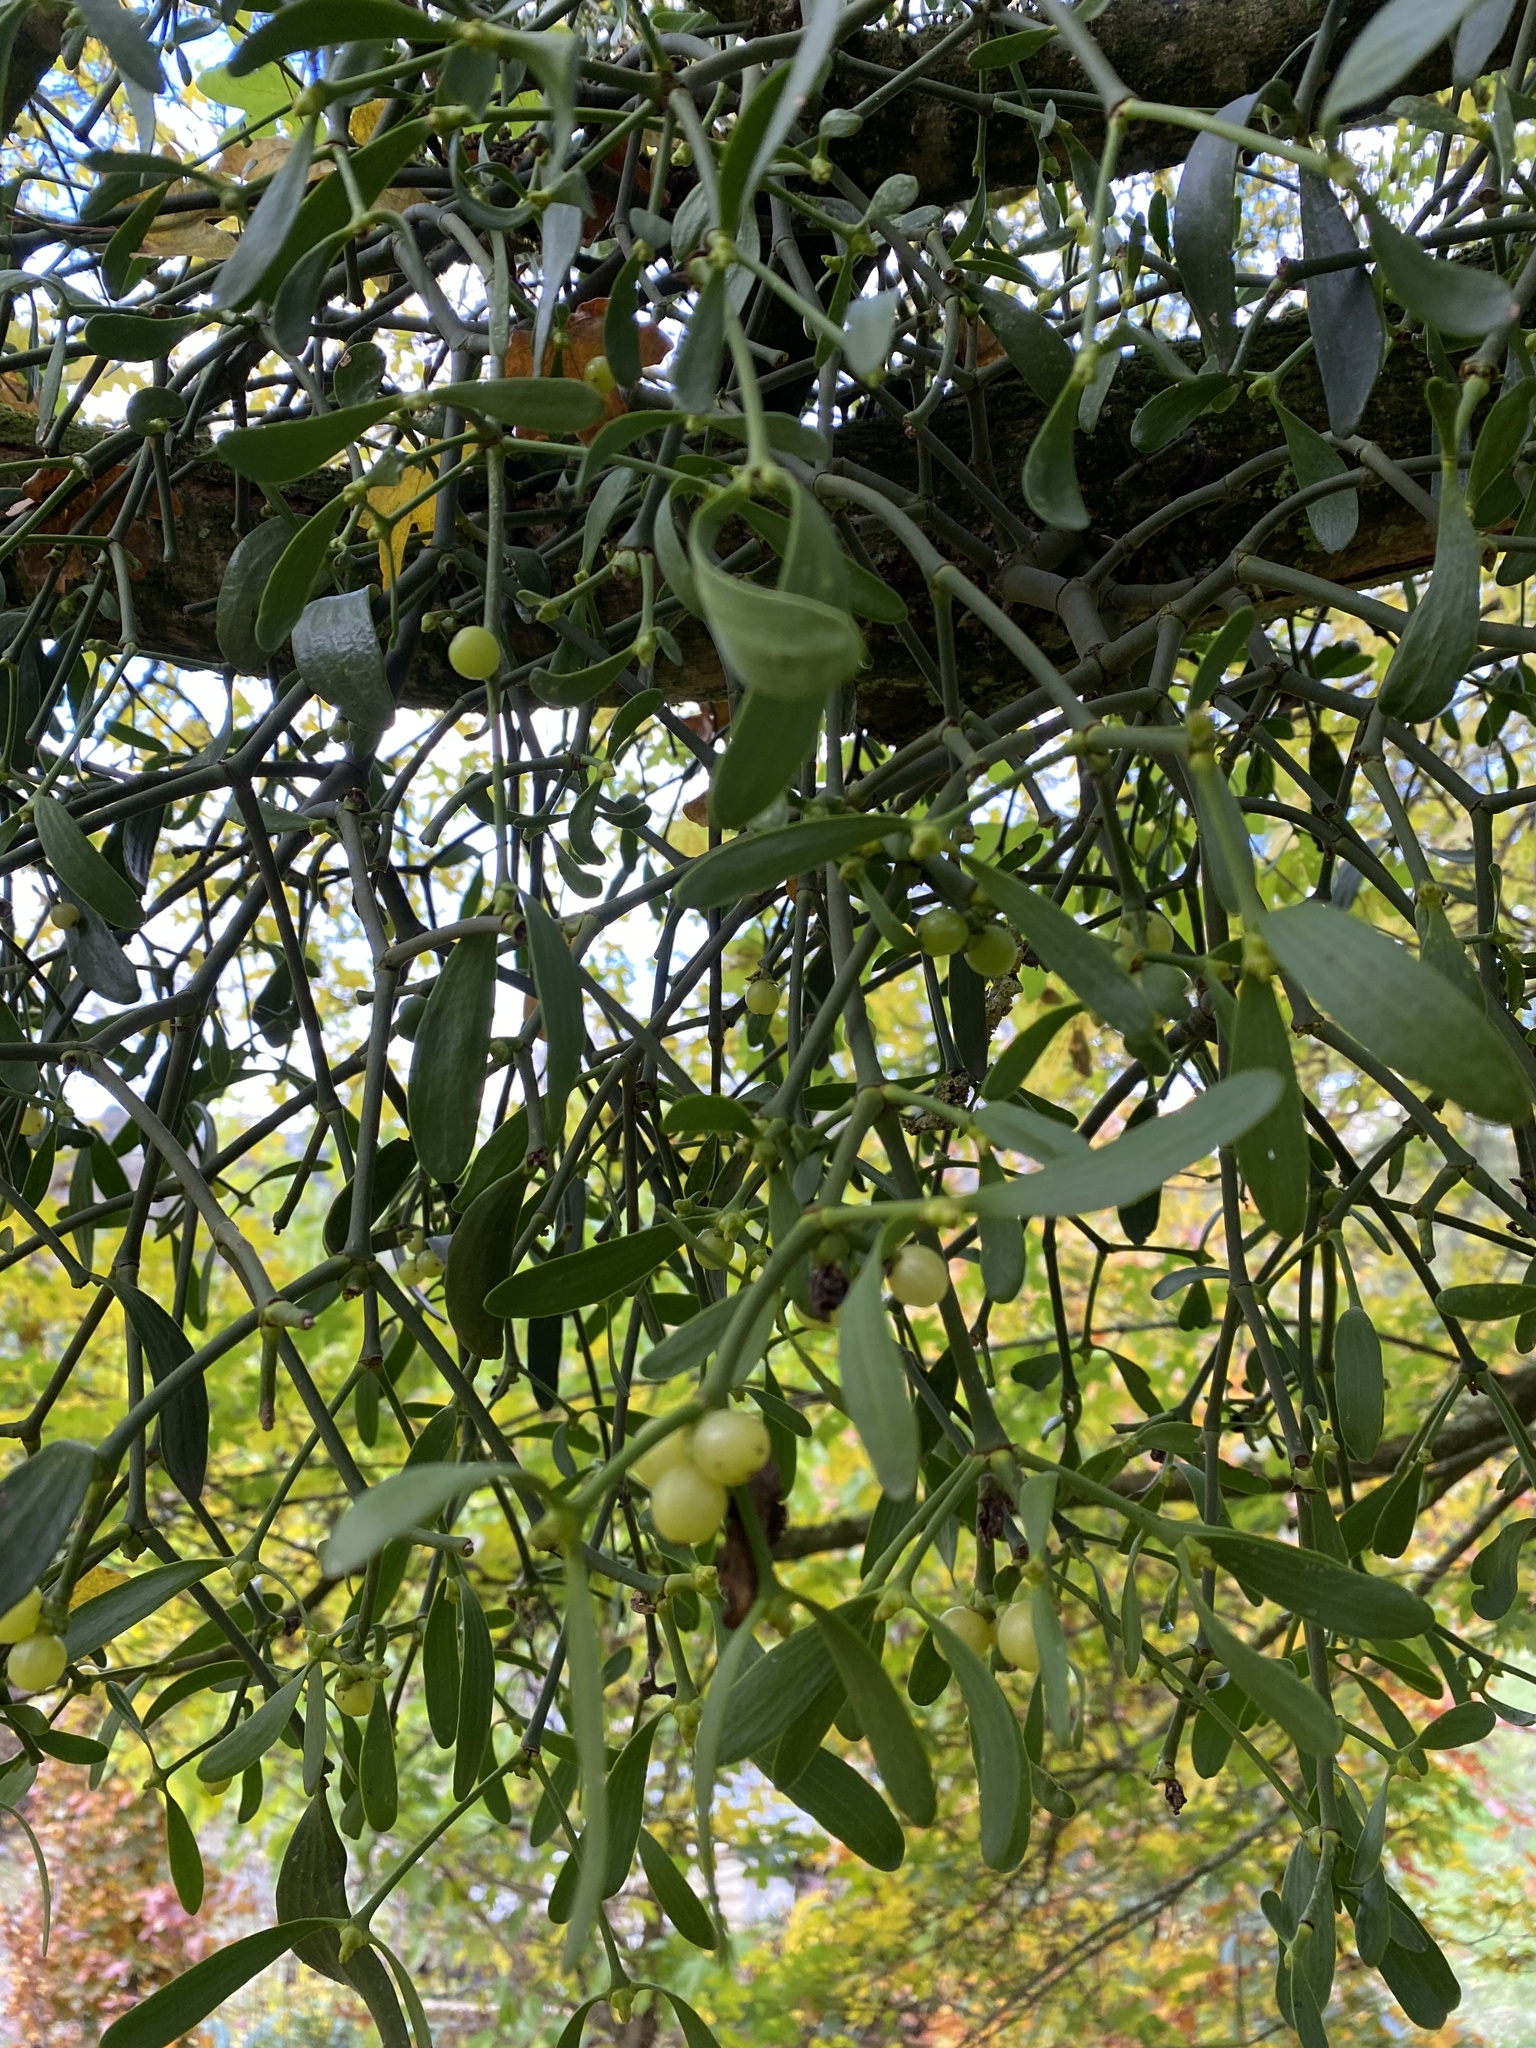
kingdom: Plantae
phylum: Tracheophyta
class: Magnoliopsida
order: Santalales
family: Viscaceae
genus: Viscum
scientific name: Viscum album
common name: Mistletoe
